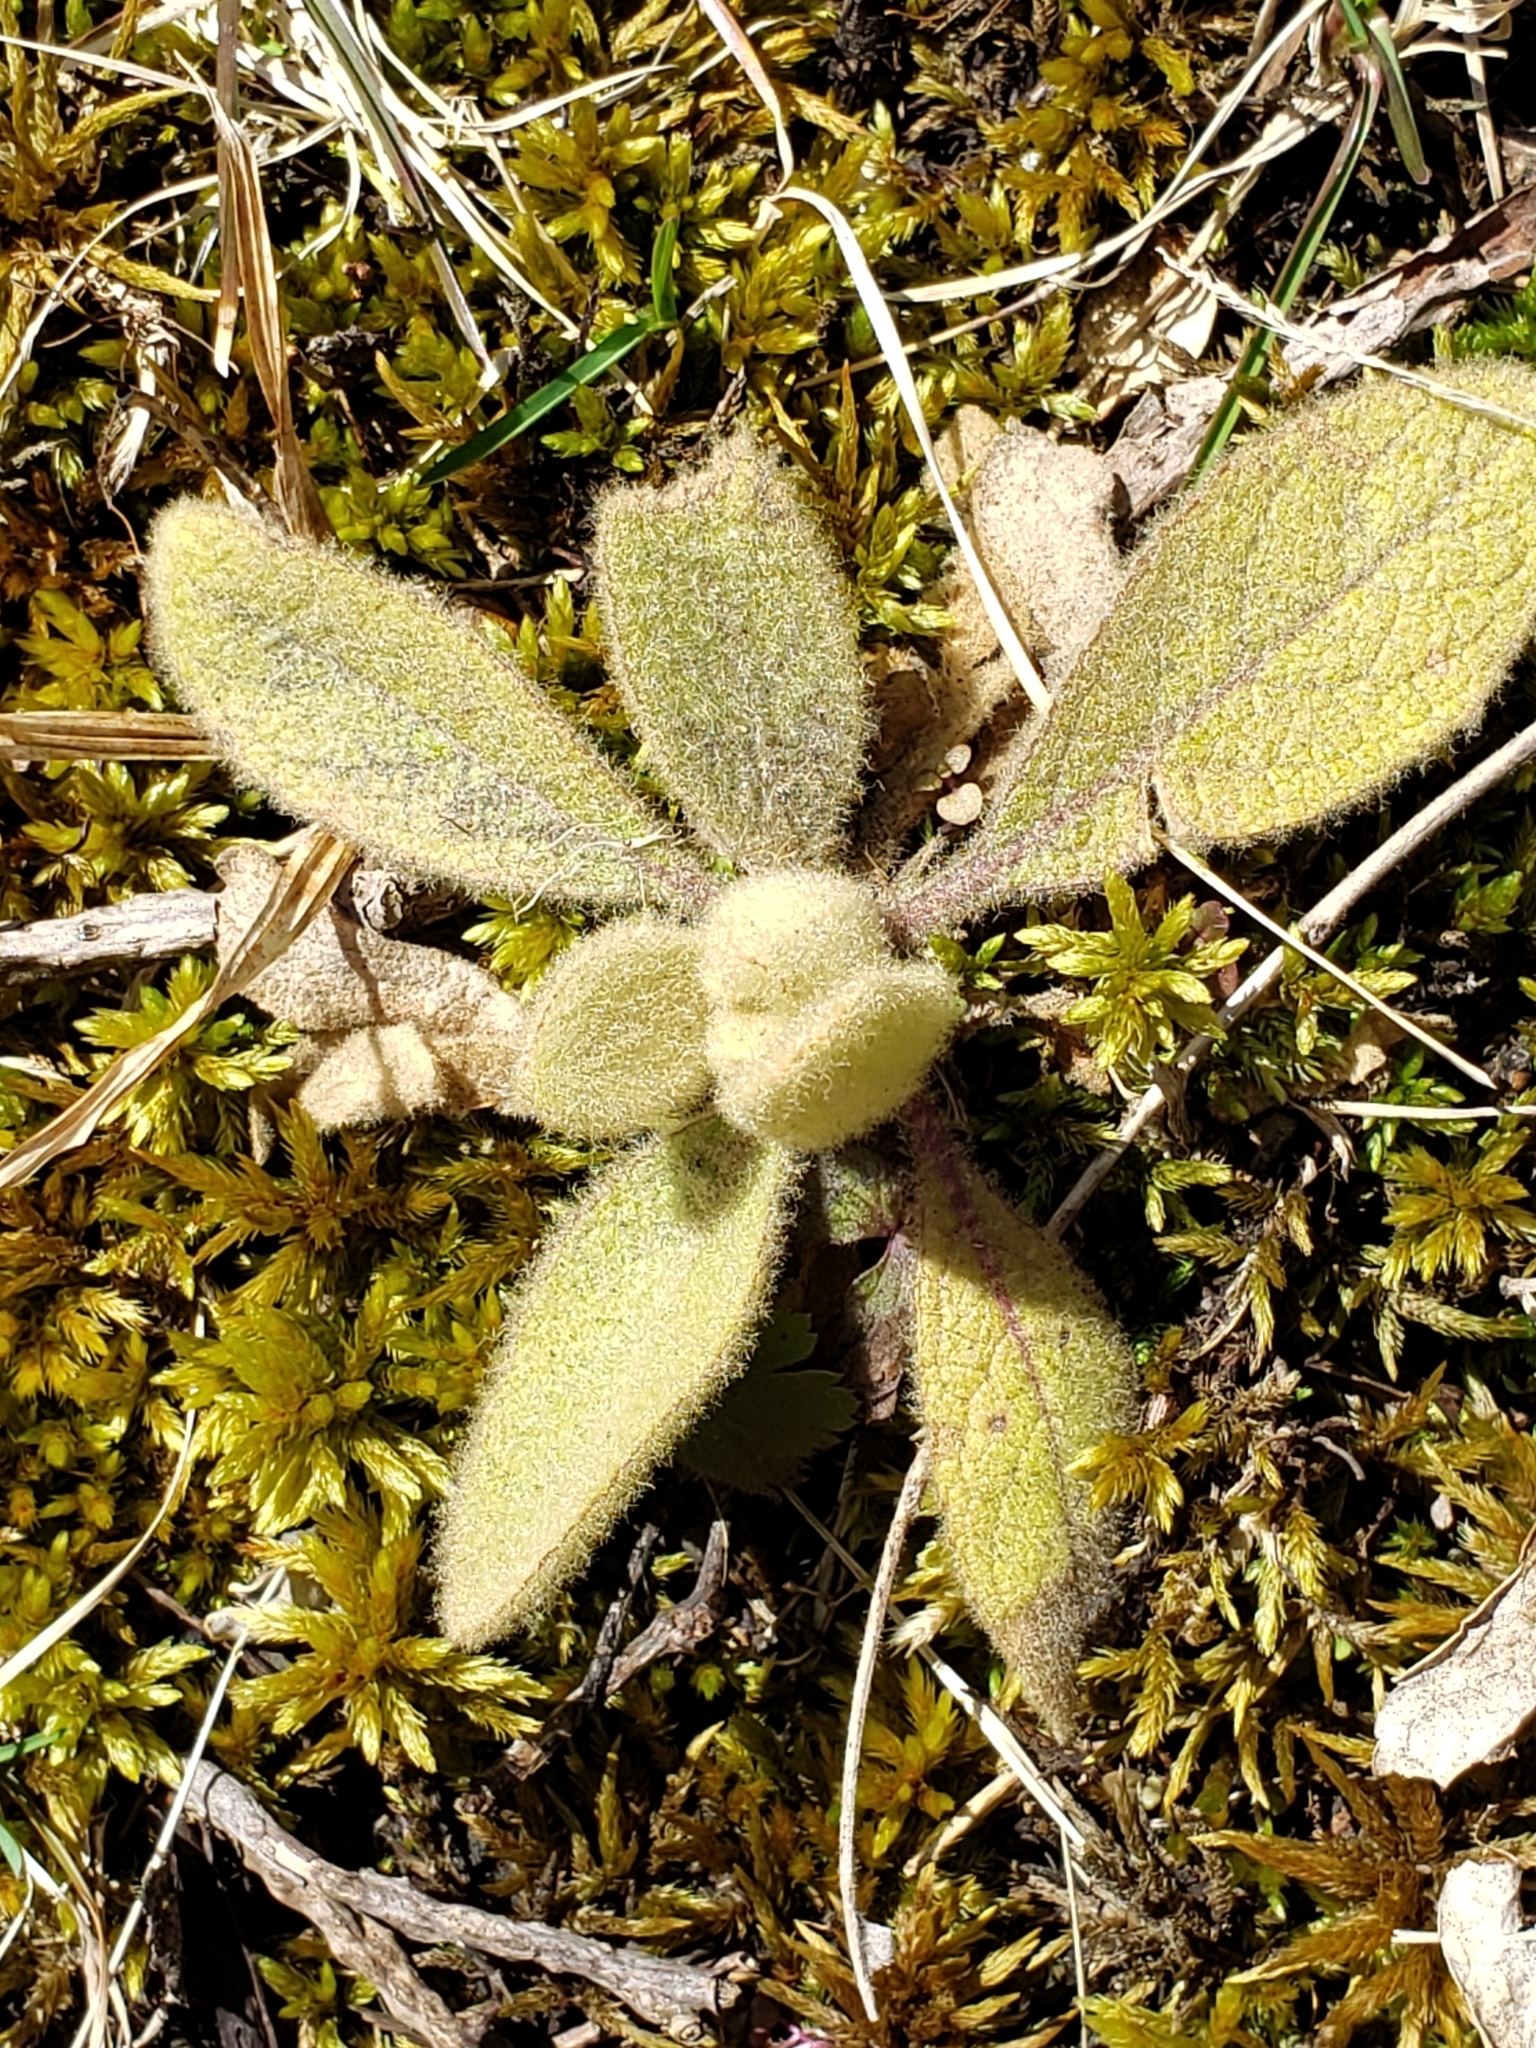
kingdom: Plantae
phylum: Tracheophyta
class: Magnoliopsida
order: Lamiales
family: Scrophulariaceae
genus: Verbascum
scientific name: Verbascum thapsus
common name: Common mullein
